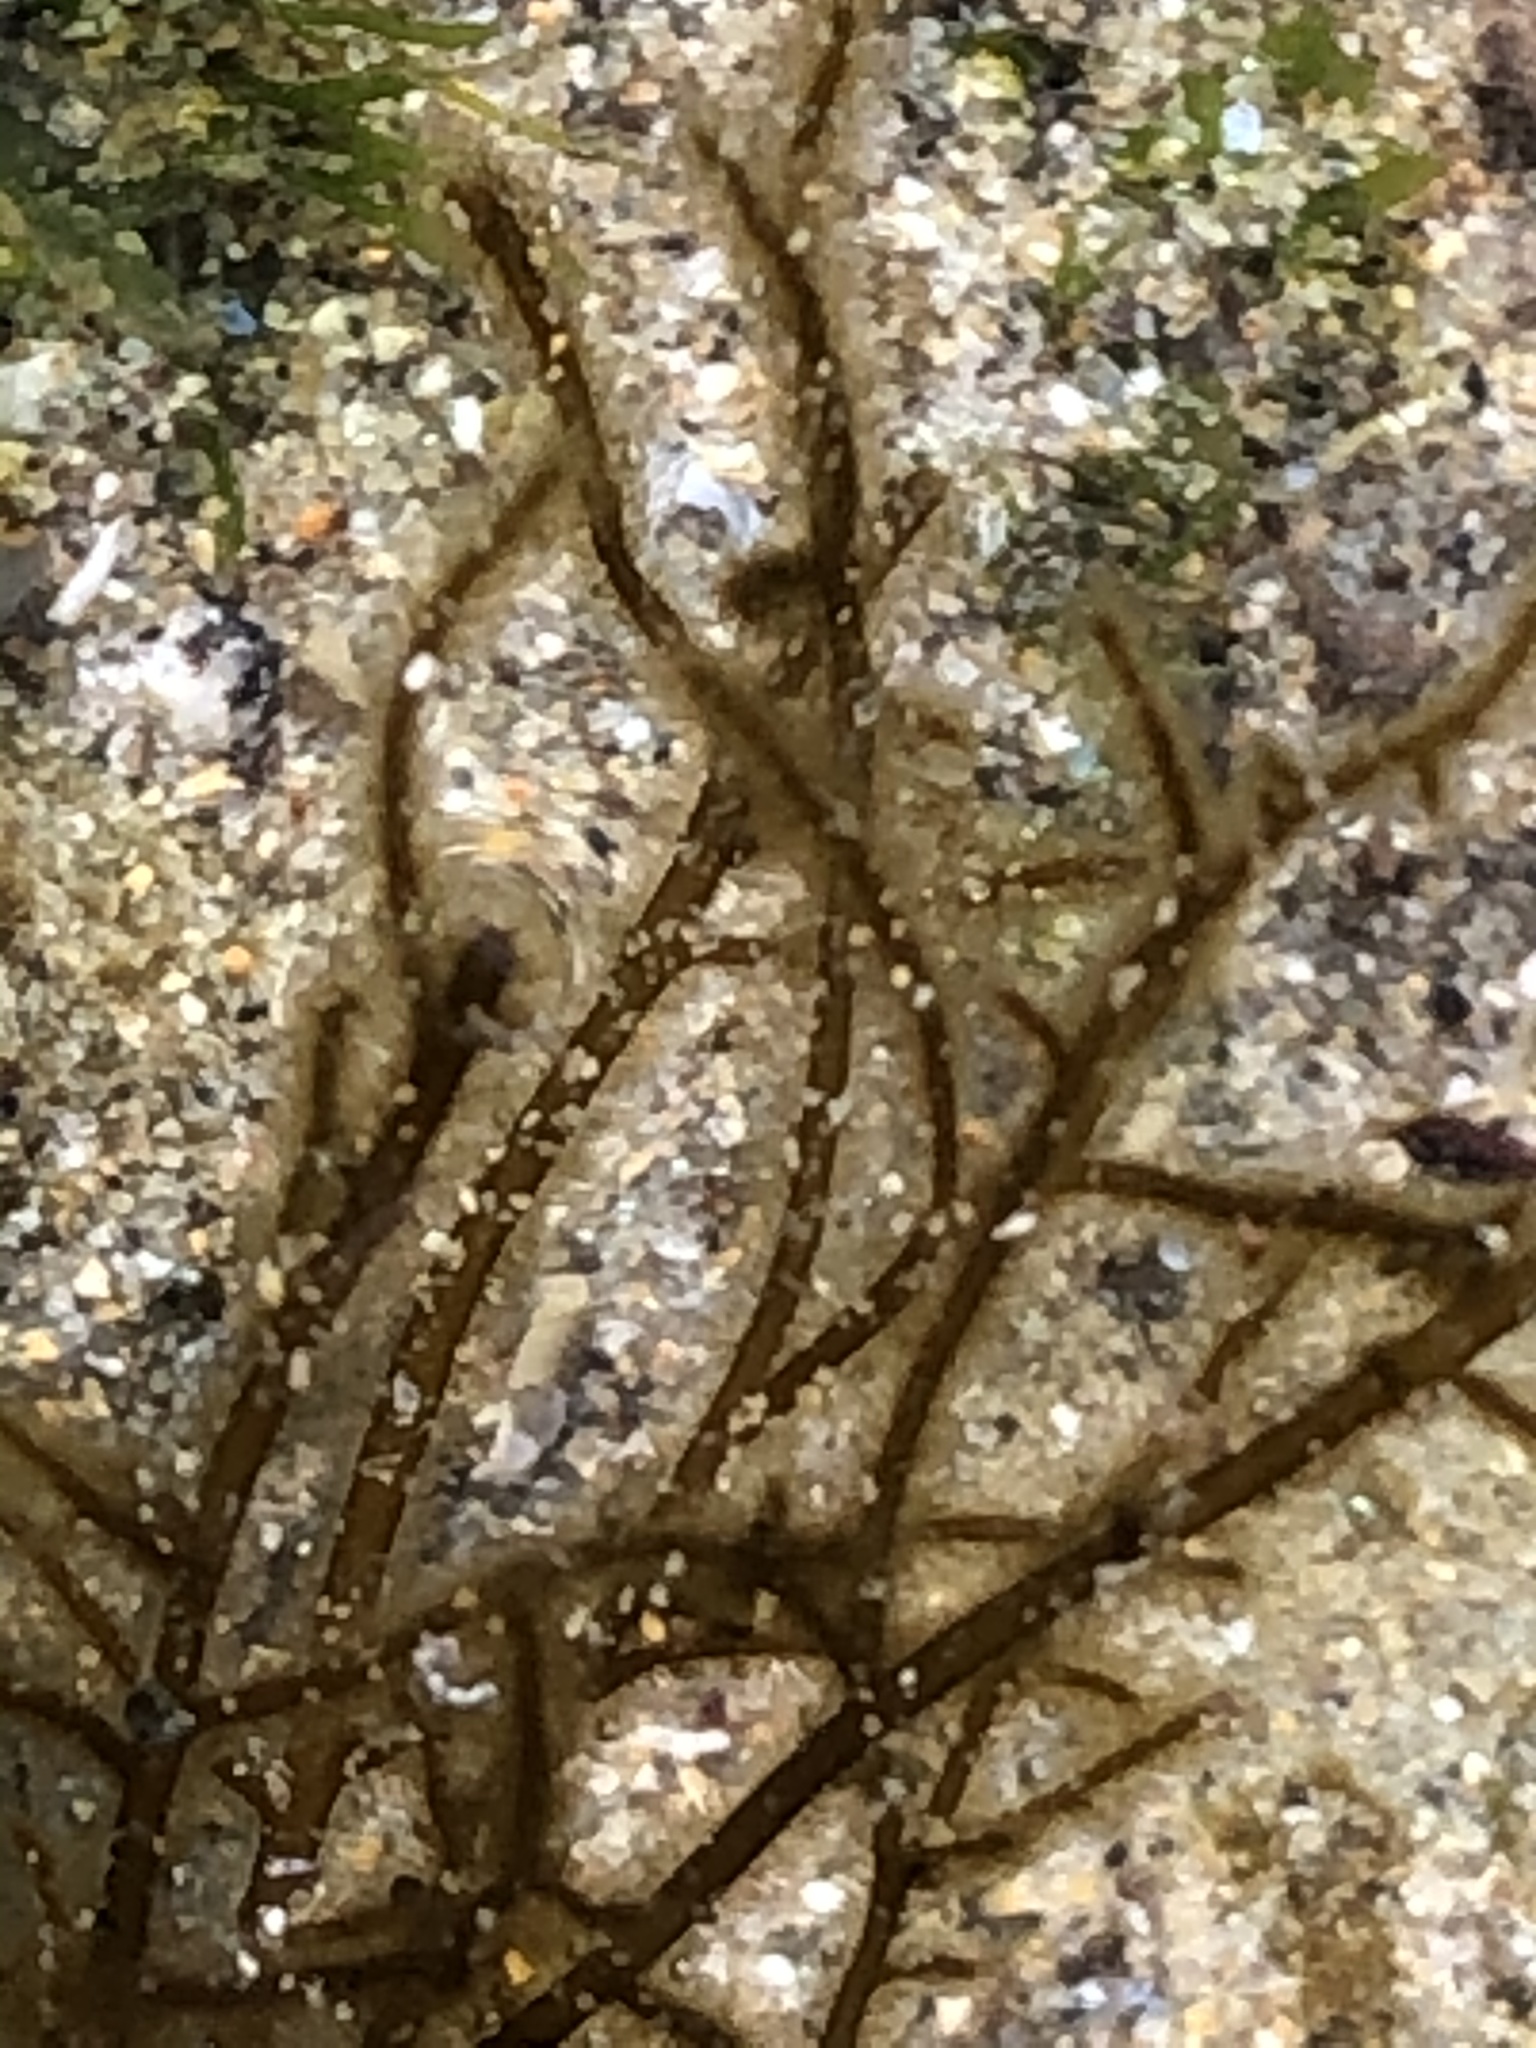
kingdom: Chromista
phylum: Ochrophyta
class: Phaeophyceae
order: Ectocarpales
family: Chordariaceae
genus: Haplogloia
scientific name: Haplogloia andersonii
